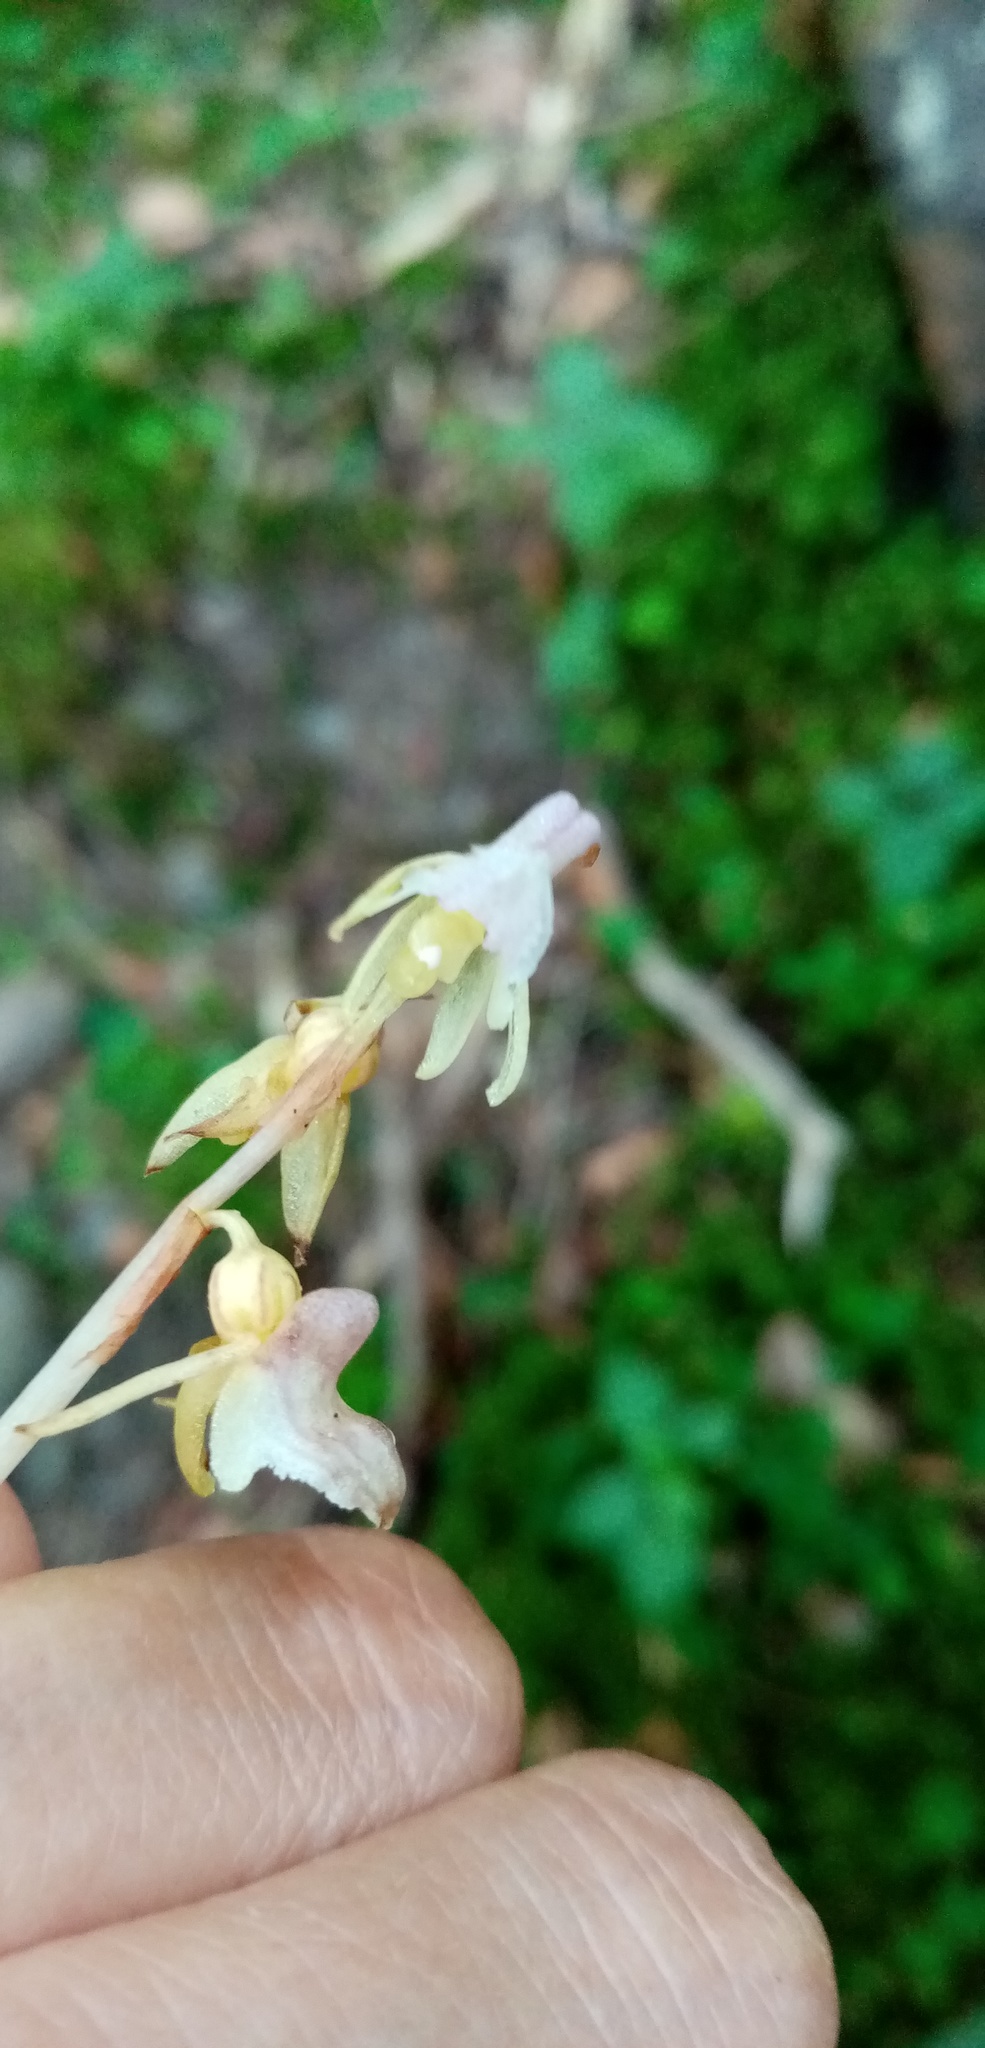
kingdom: Plantae
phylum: Tracheophyta
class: Liliopsida
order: Asparagales
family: Orchidaceae
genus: Epipogium
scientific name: Epipogium aphyllum
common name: Ghost orchid
